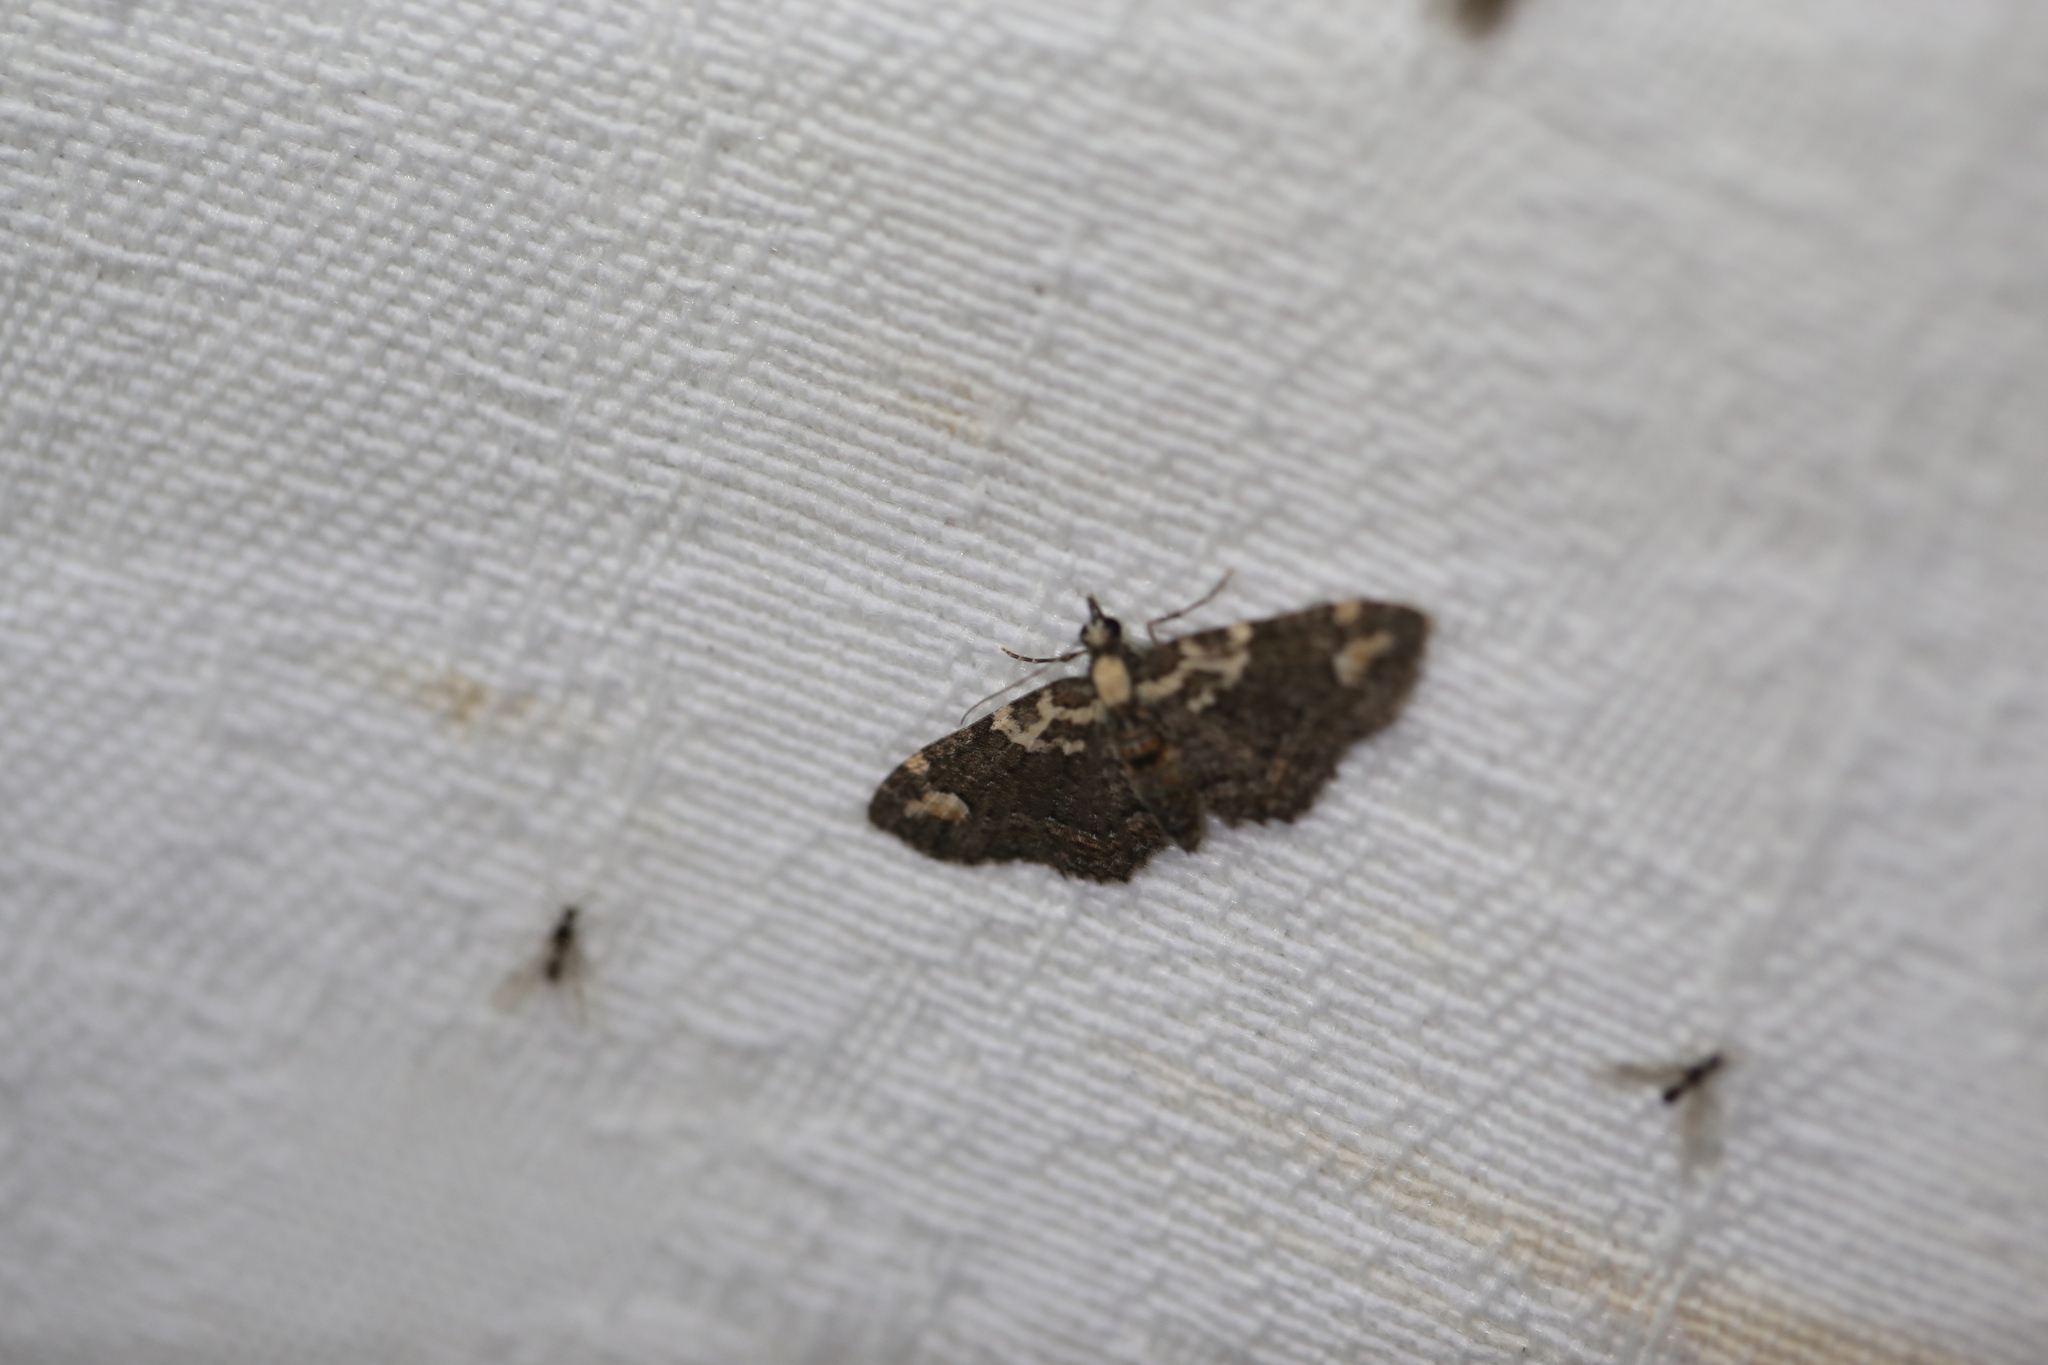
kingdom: Animalia
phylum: Arthropoda
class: Insecta
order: Lepidoptera
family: Geometridae
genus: Pasiphilodes
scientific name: Pasiphilodes testulata
